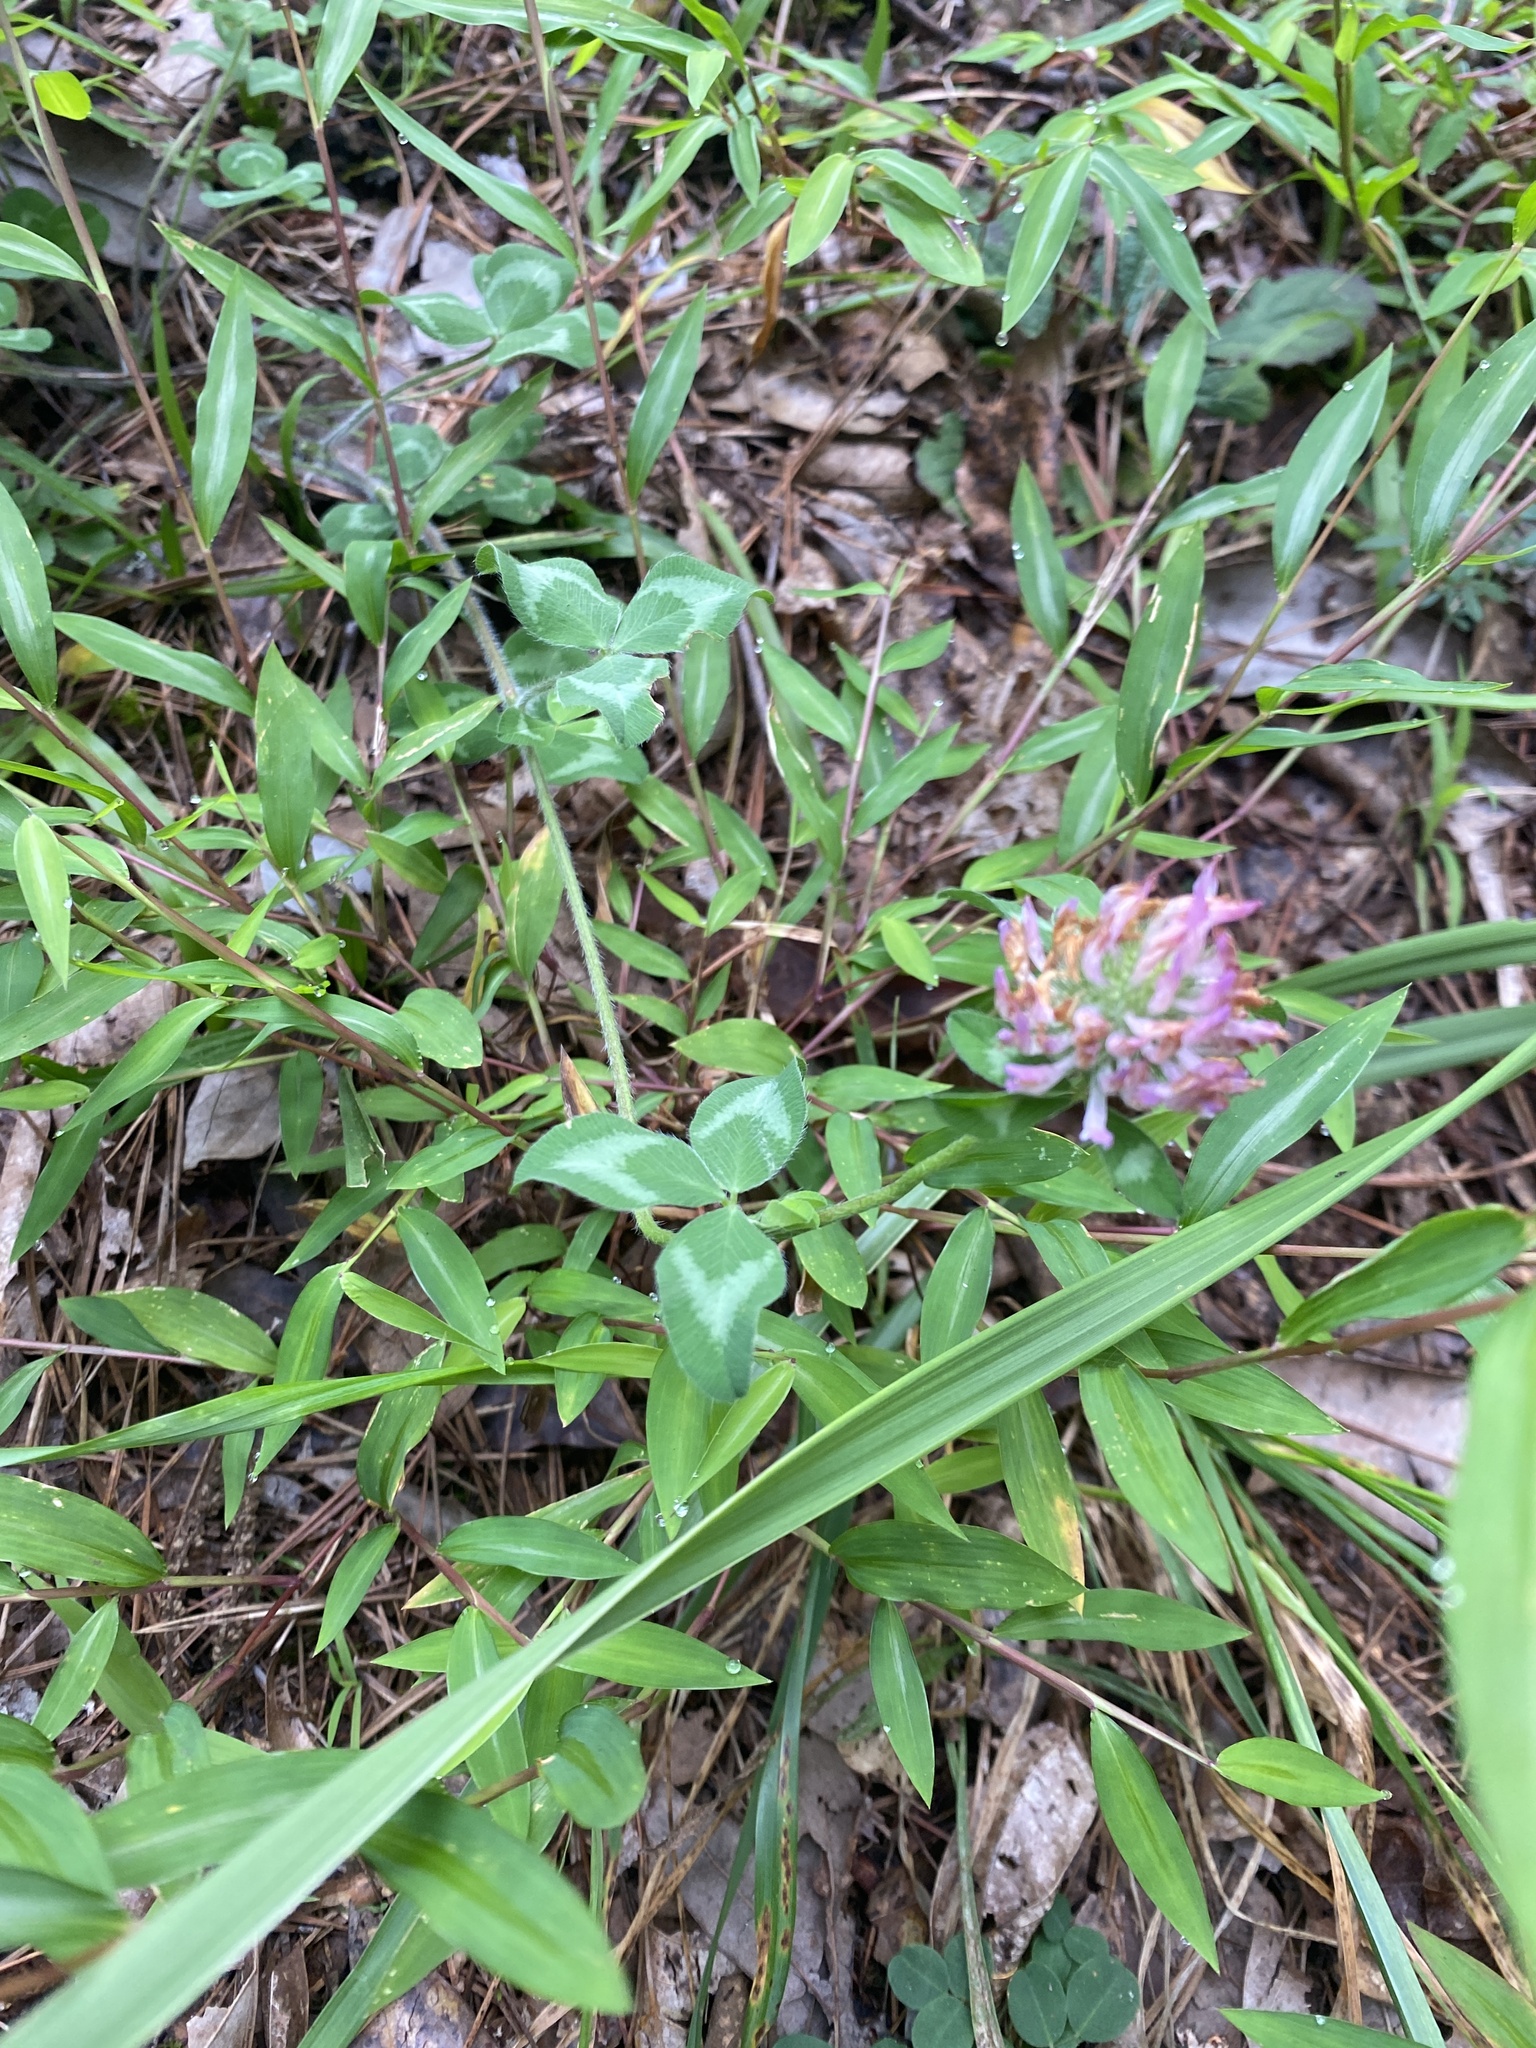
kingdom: Plantae
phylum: Tracheophyta
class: Magnoliopsida
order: Fabales
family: Fabaceae
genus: Trifolium
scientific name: Trifolium pratense
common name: Red clover
